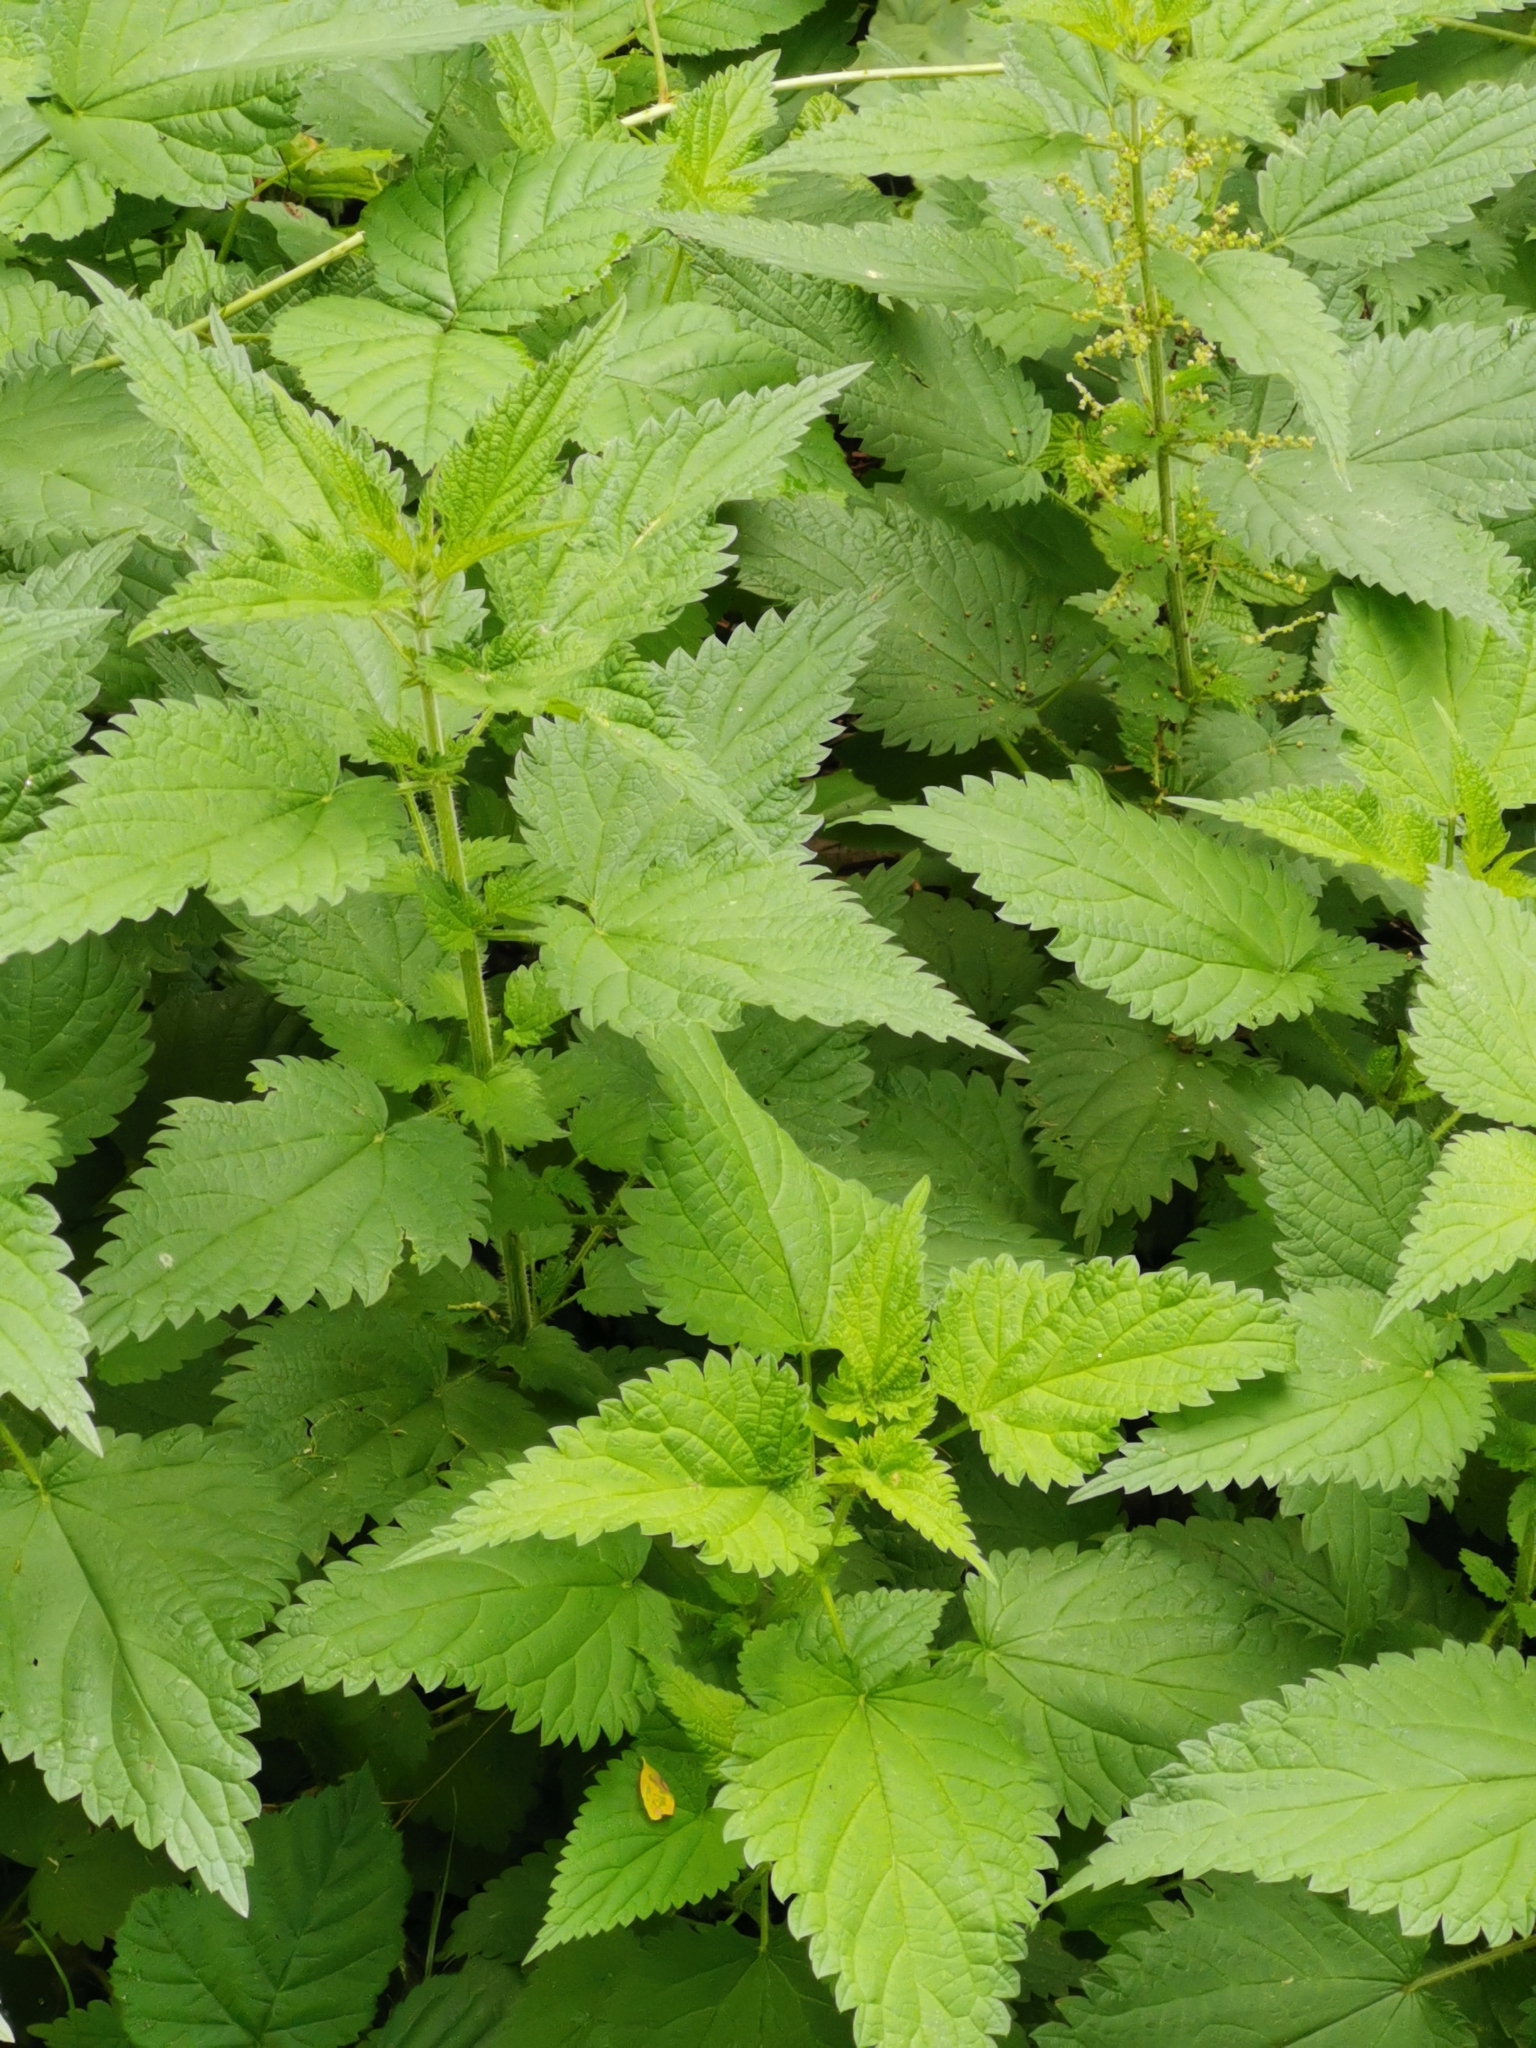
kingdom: Plantae
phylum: Tracheophyta
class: Magnoliopsida
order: Rosales
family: Urticaceae
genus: Urtica
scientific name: Urtica dioica
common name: Common nettle
